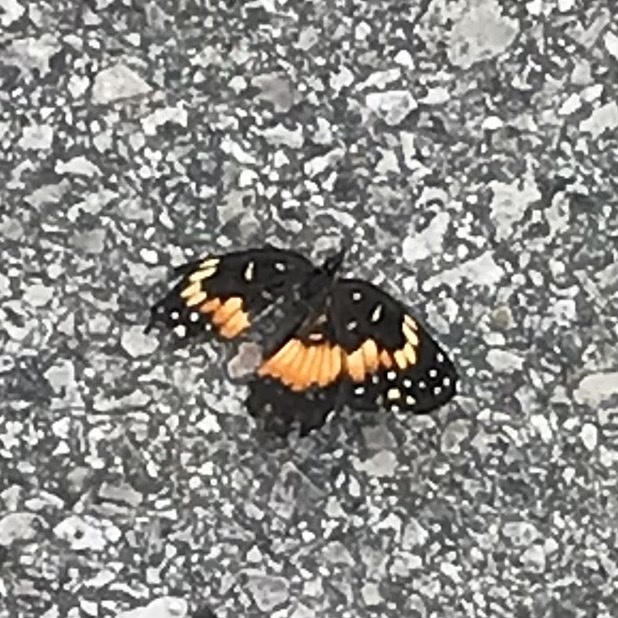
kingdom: Animalia
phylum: Arthropoda
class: Insecta
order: Lepidoptera
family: Nymphalidae
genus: Chlosyne
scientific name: Chlosyne lacinia
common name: Bordered patch
